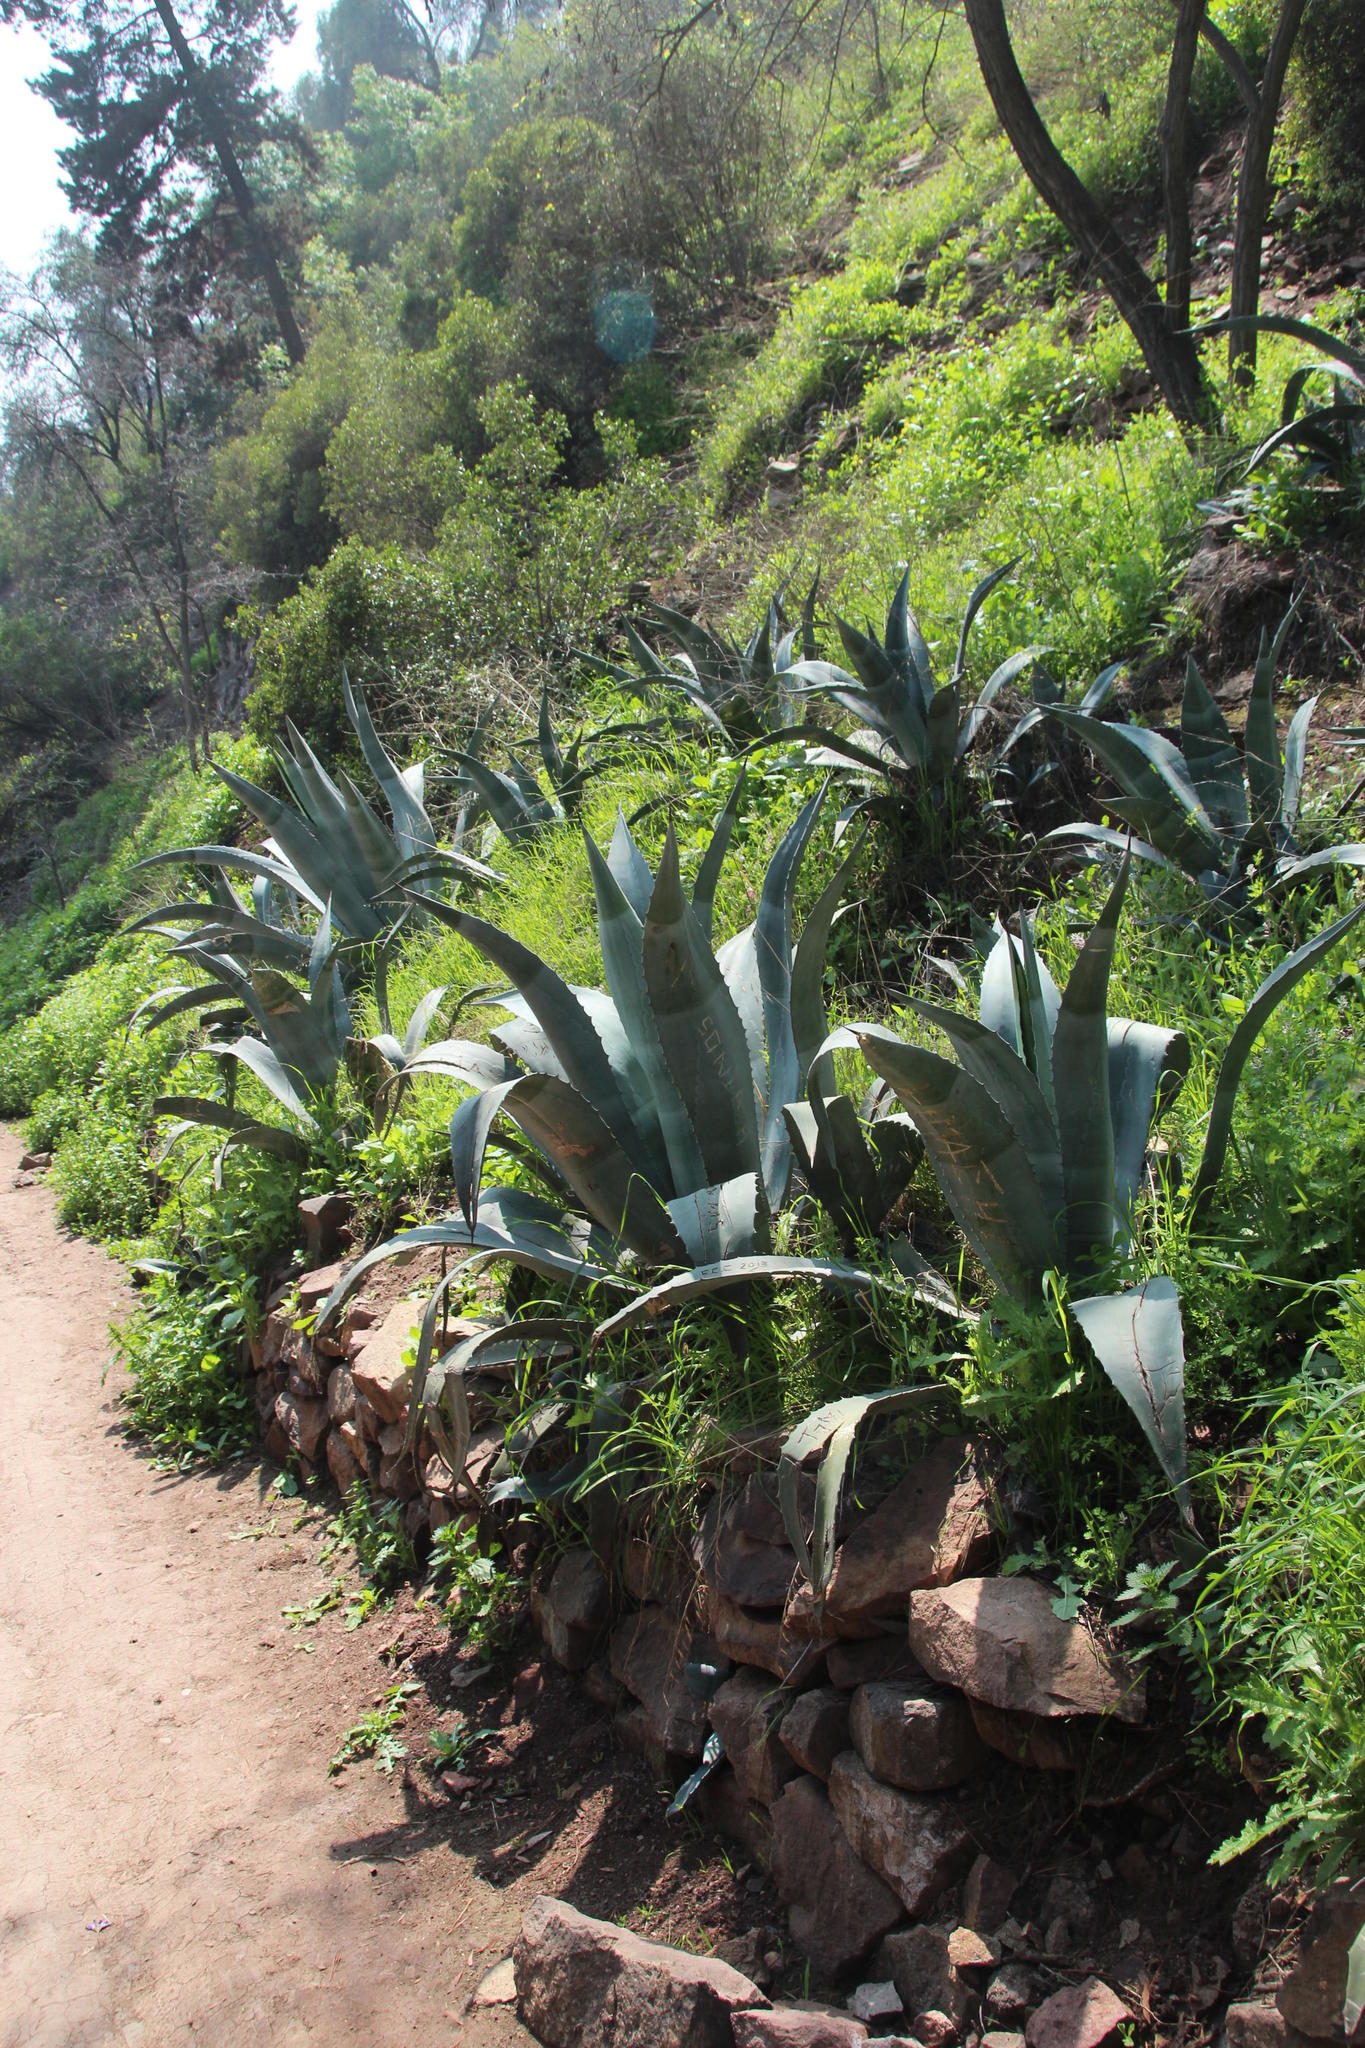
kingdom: Plantae
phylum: Tracheophyta
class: Liliopsida
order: Asparagales
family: Asparagaceae
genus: Agave
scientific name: Agave americana
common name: Centuryplant
